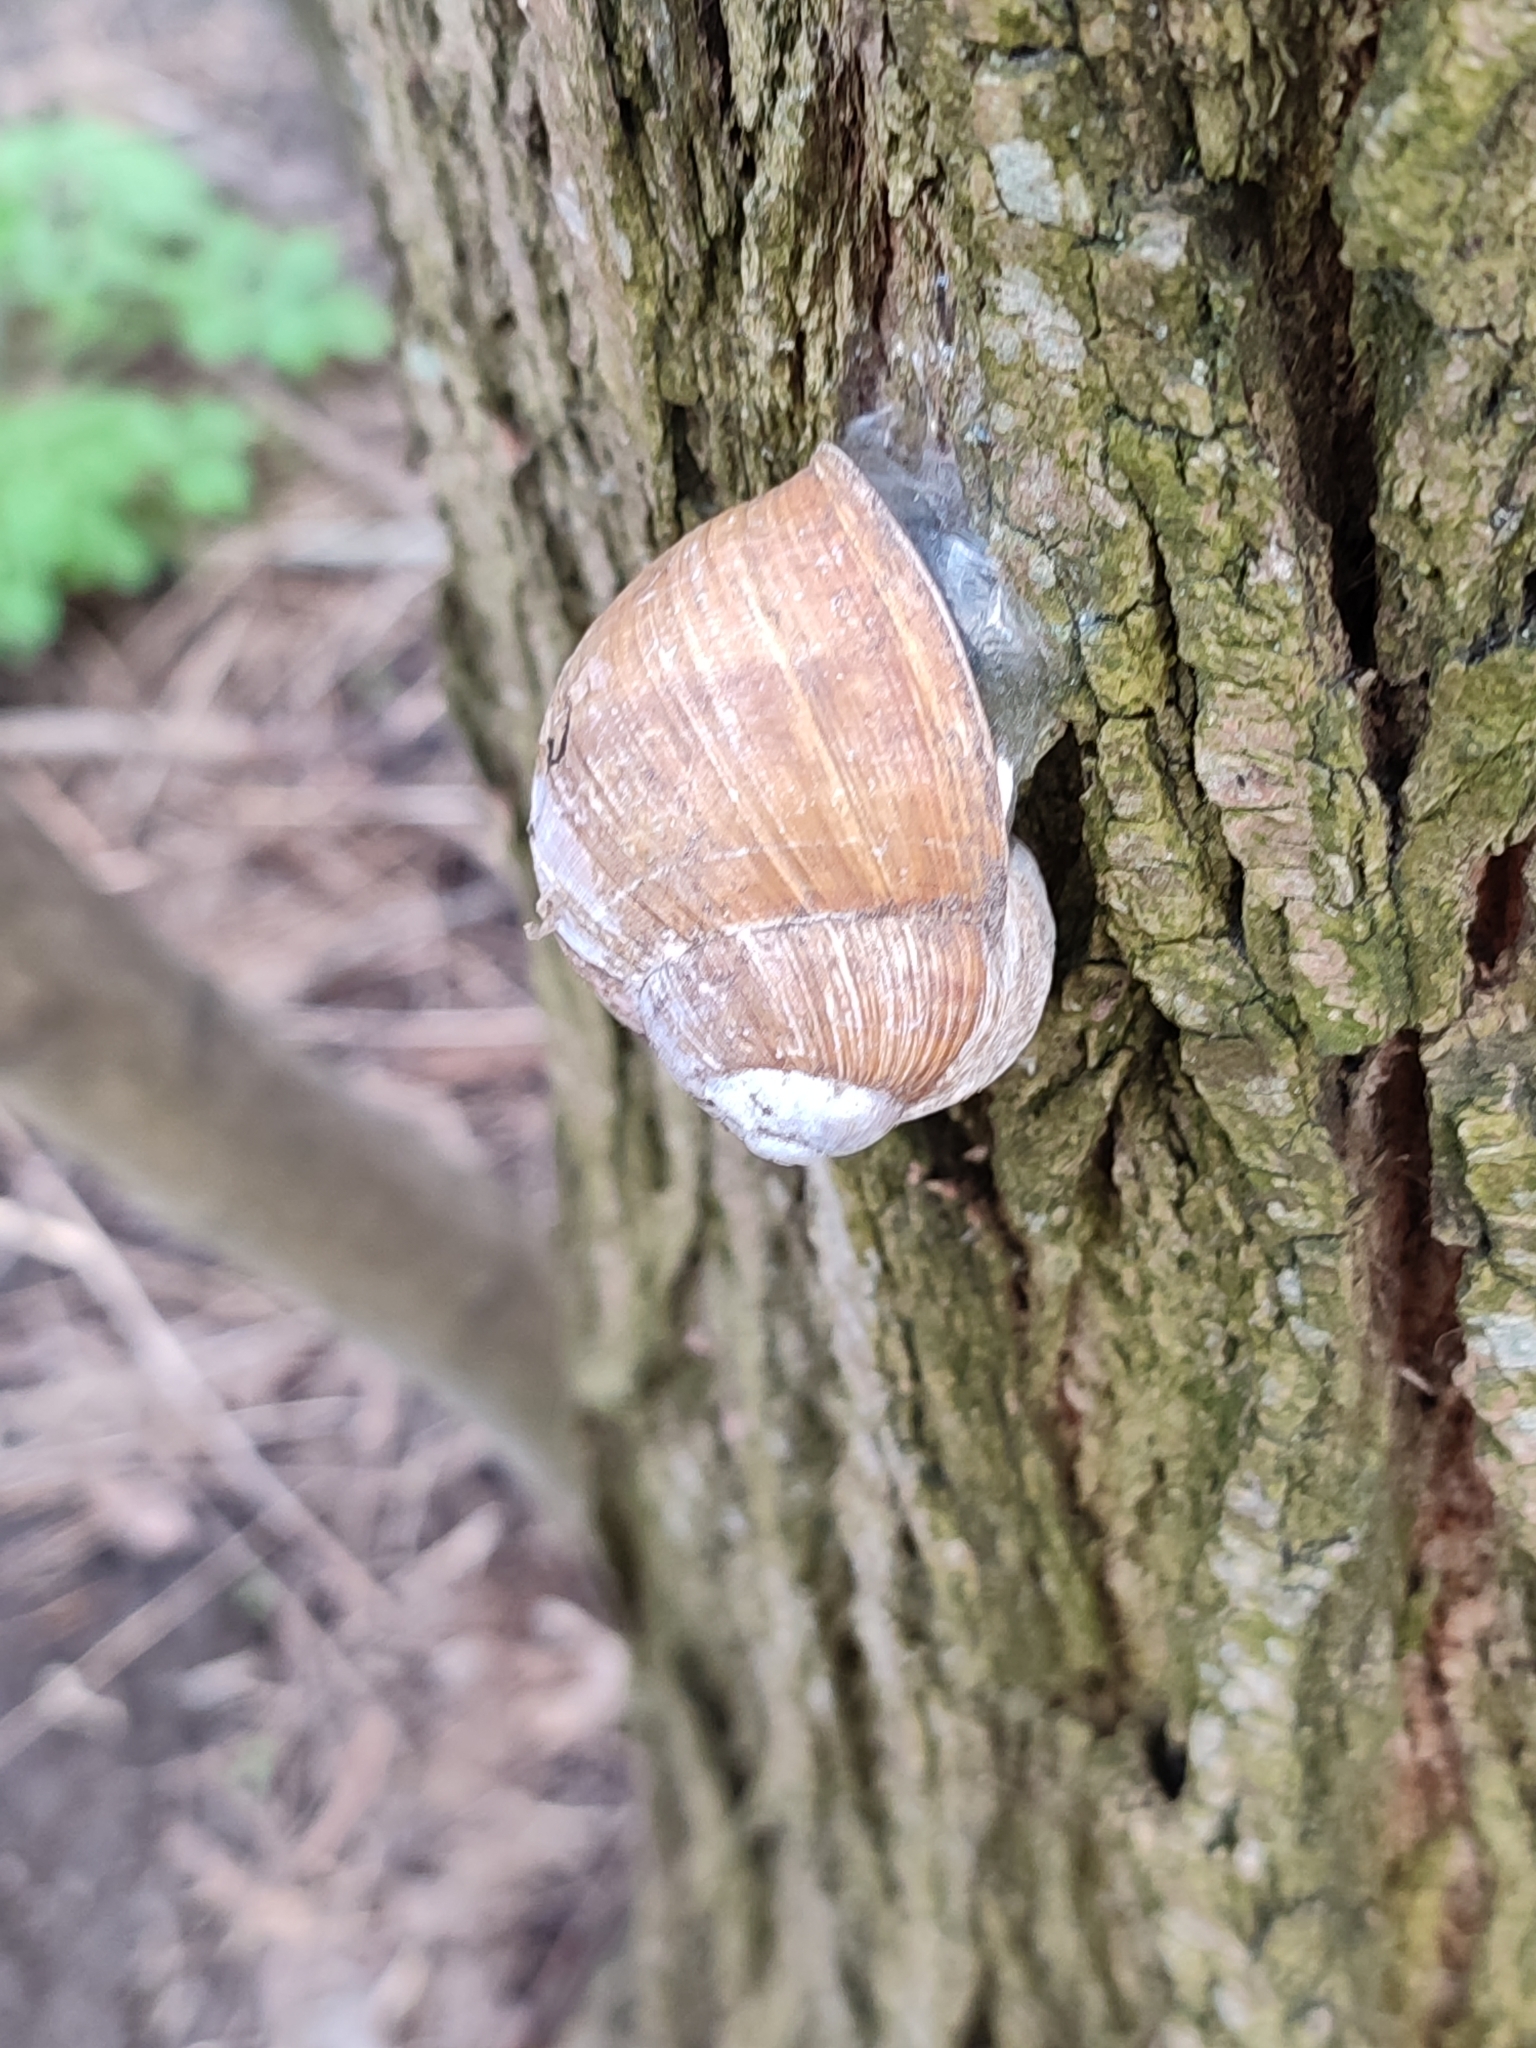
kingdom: Animalia
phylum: Mollusca
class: Gastropoda
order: Stylommatophora
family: Helicidae
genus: Helix
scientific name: Helix pomatia
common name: Roman snail
